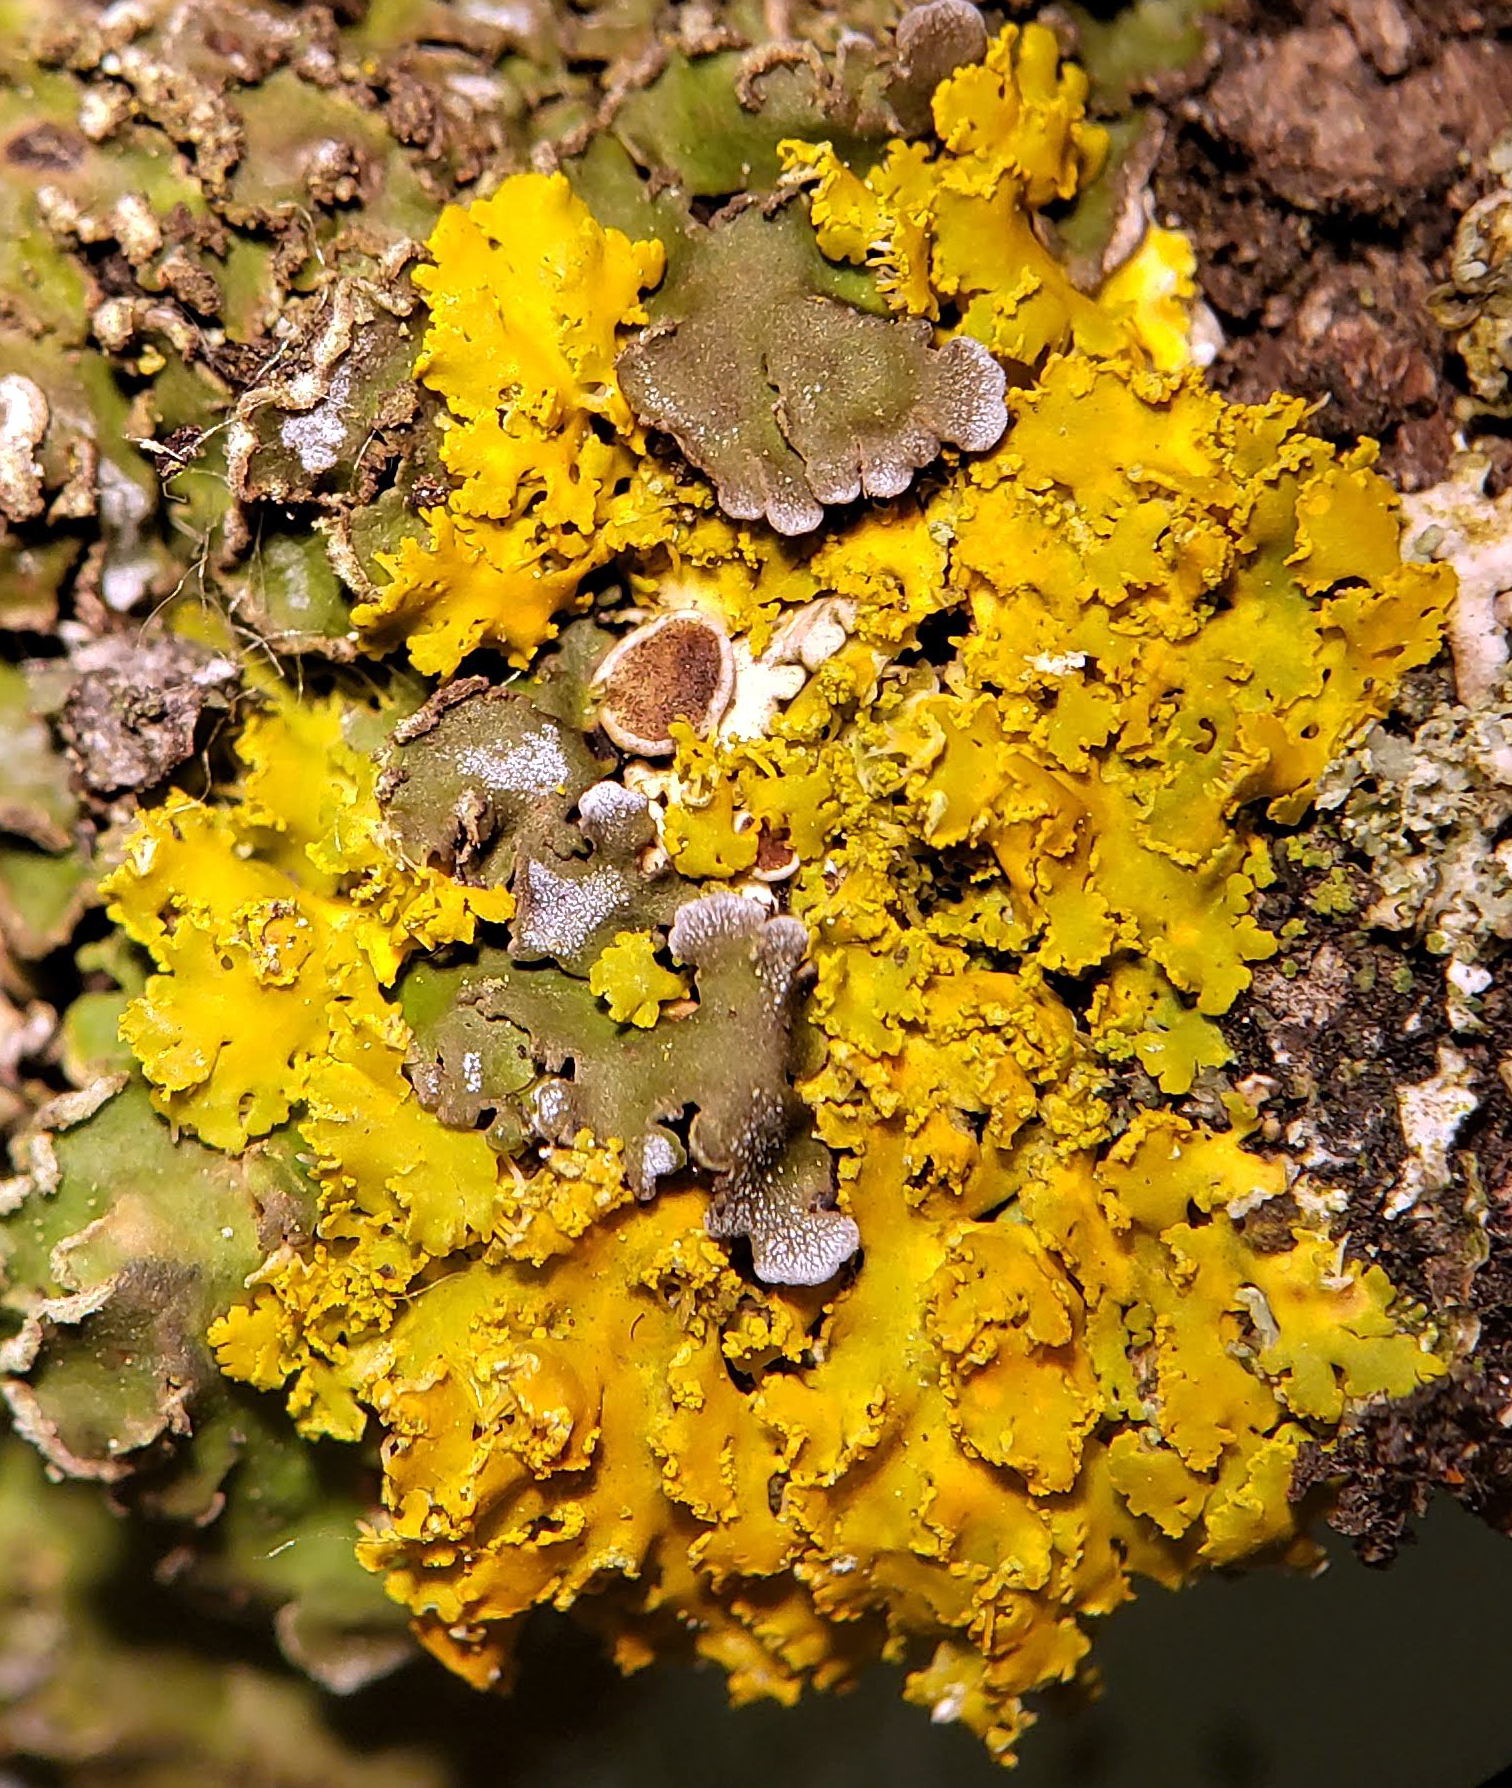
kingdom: Fungi
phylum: Ascomycota
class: Lecanoromycetes
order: Teloschistales
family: Teloschistaceae
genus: Xanthoria
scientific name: Xanthoria ulophyllodes
